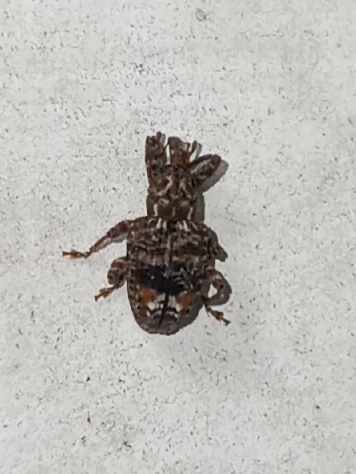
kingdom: Animalia
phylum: Arthropoda
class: Insecta
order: Coleoptera
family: Curculionidae
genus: Conotrachelus
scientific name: Conotrachelus nenuphar
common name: Plum curculio
